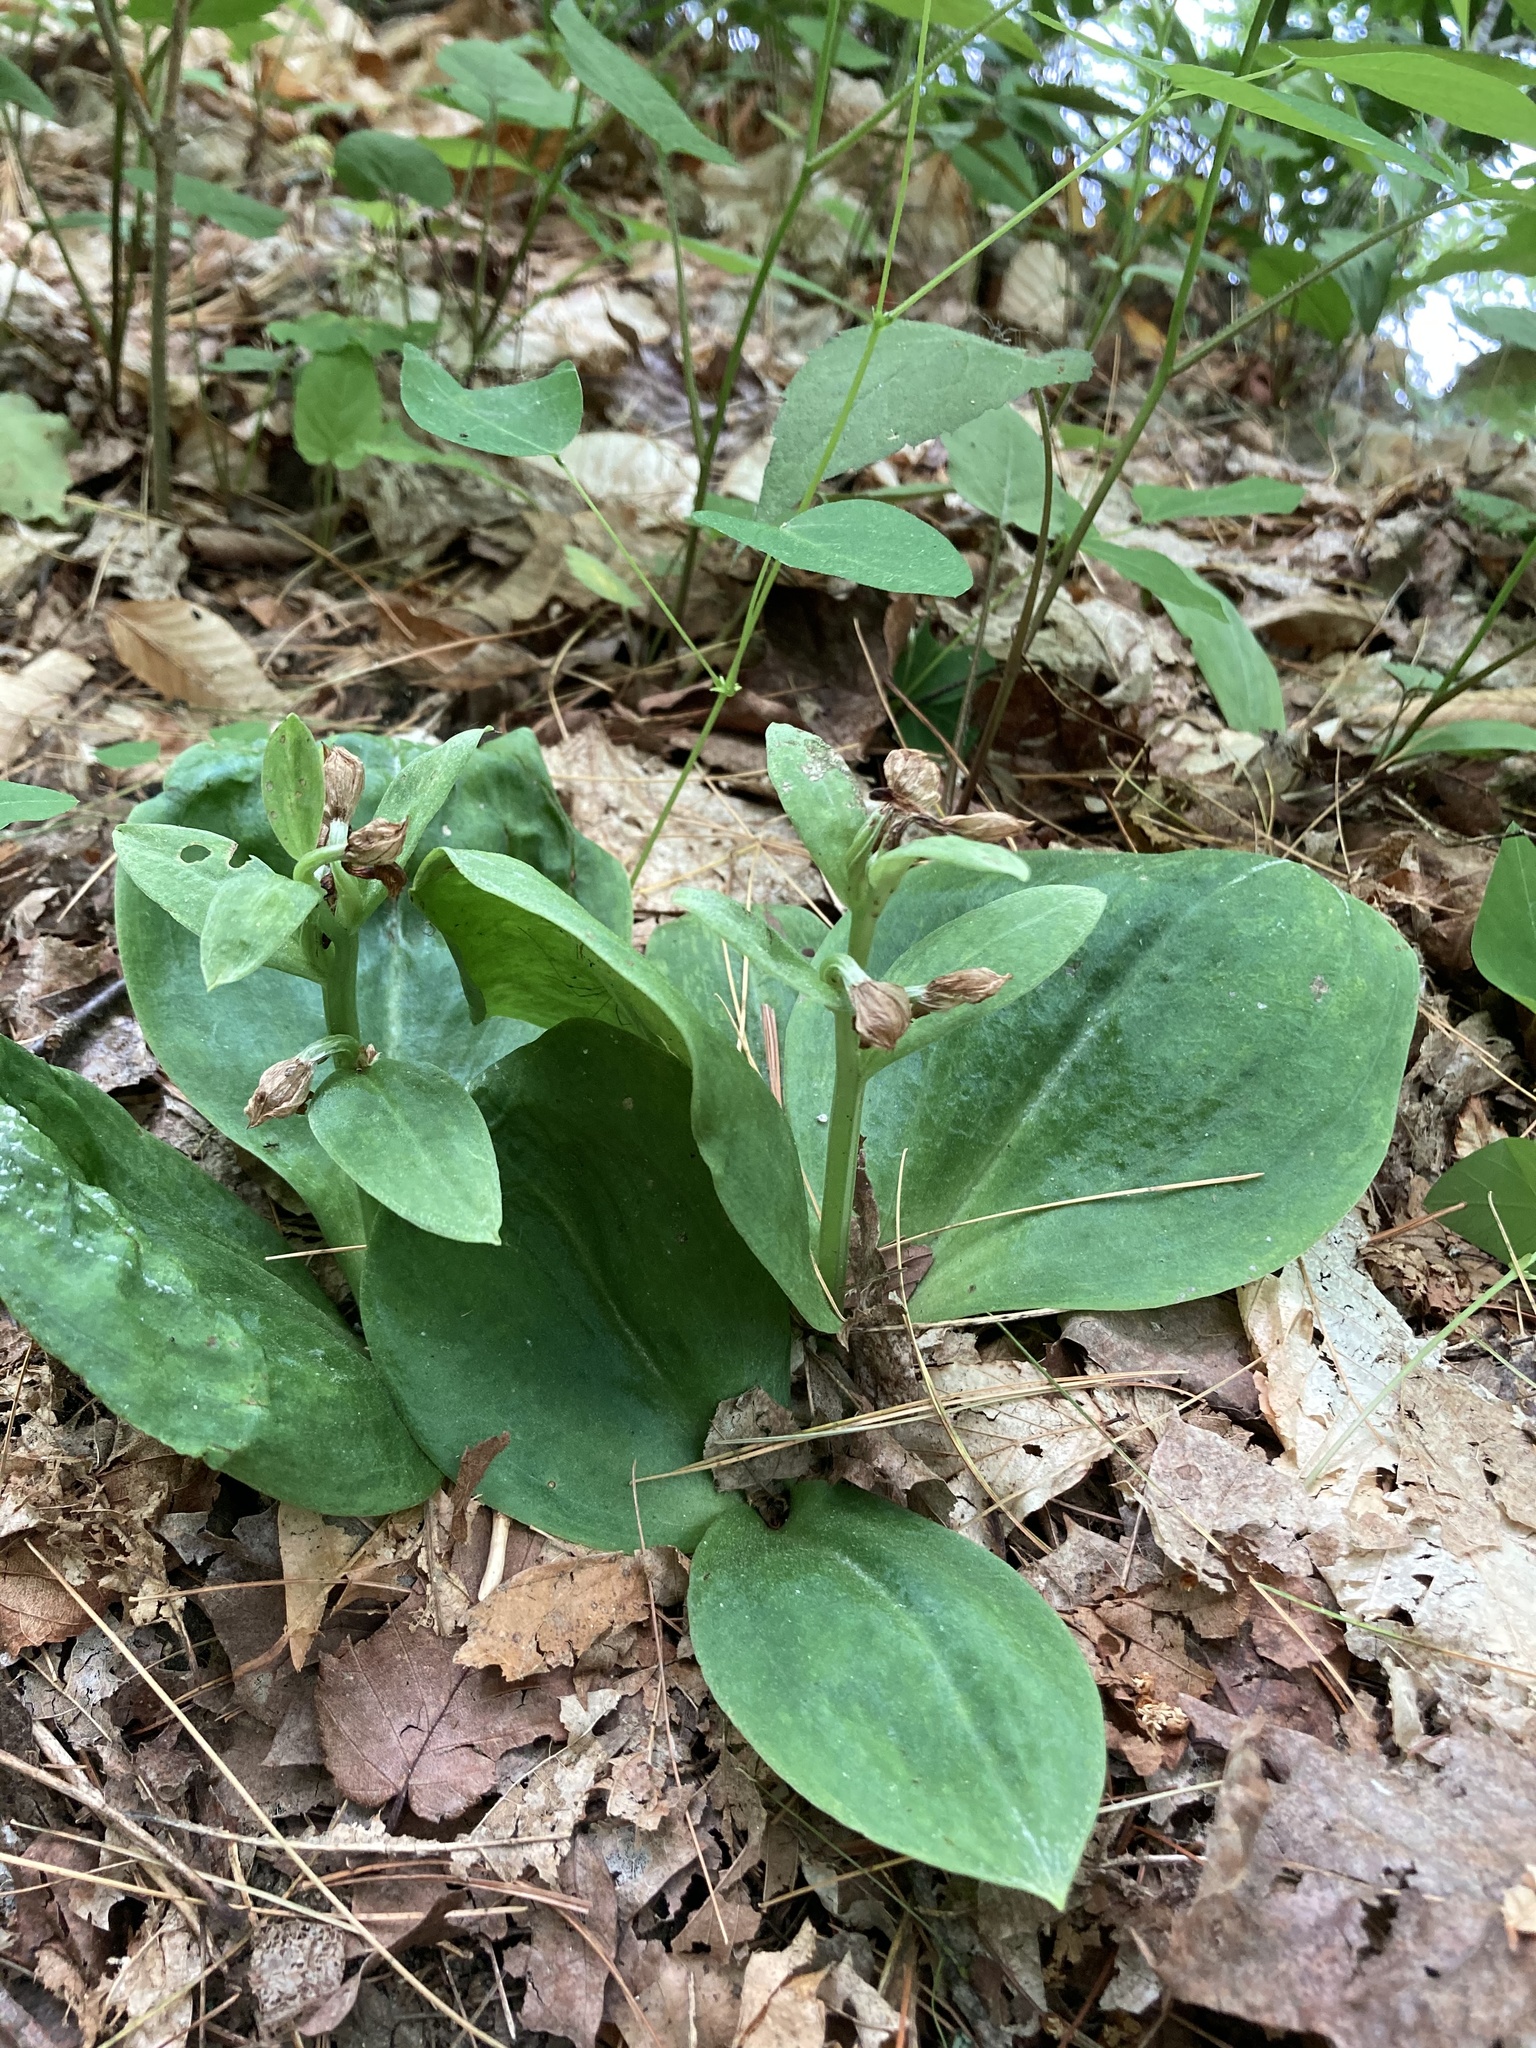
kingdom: Plantae
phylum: Tracheophyta
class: Liliopsida
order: Asparagales
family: Orchidaceae
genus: Galearis
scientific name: Galearis spectabilis
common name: Purple-hooded orchis
